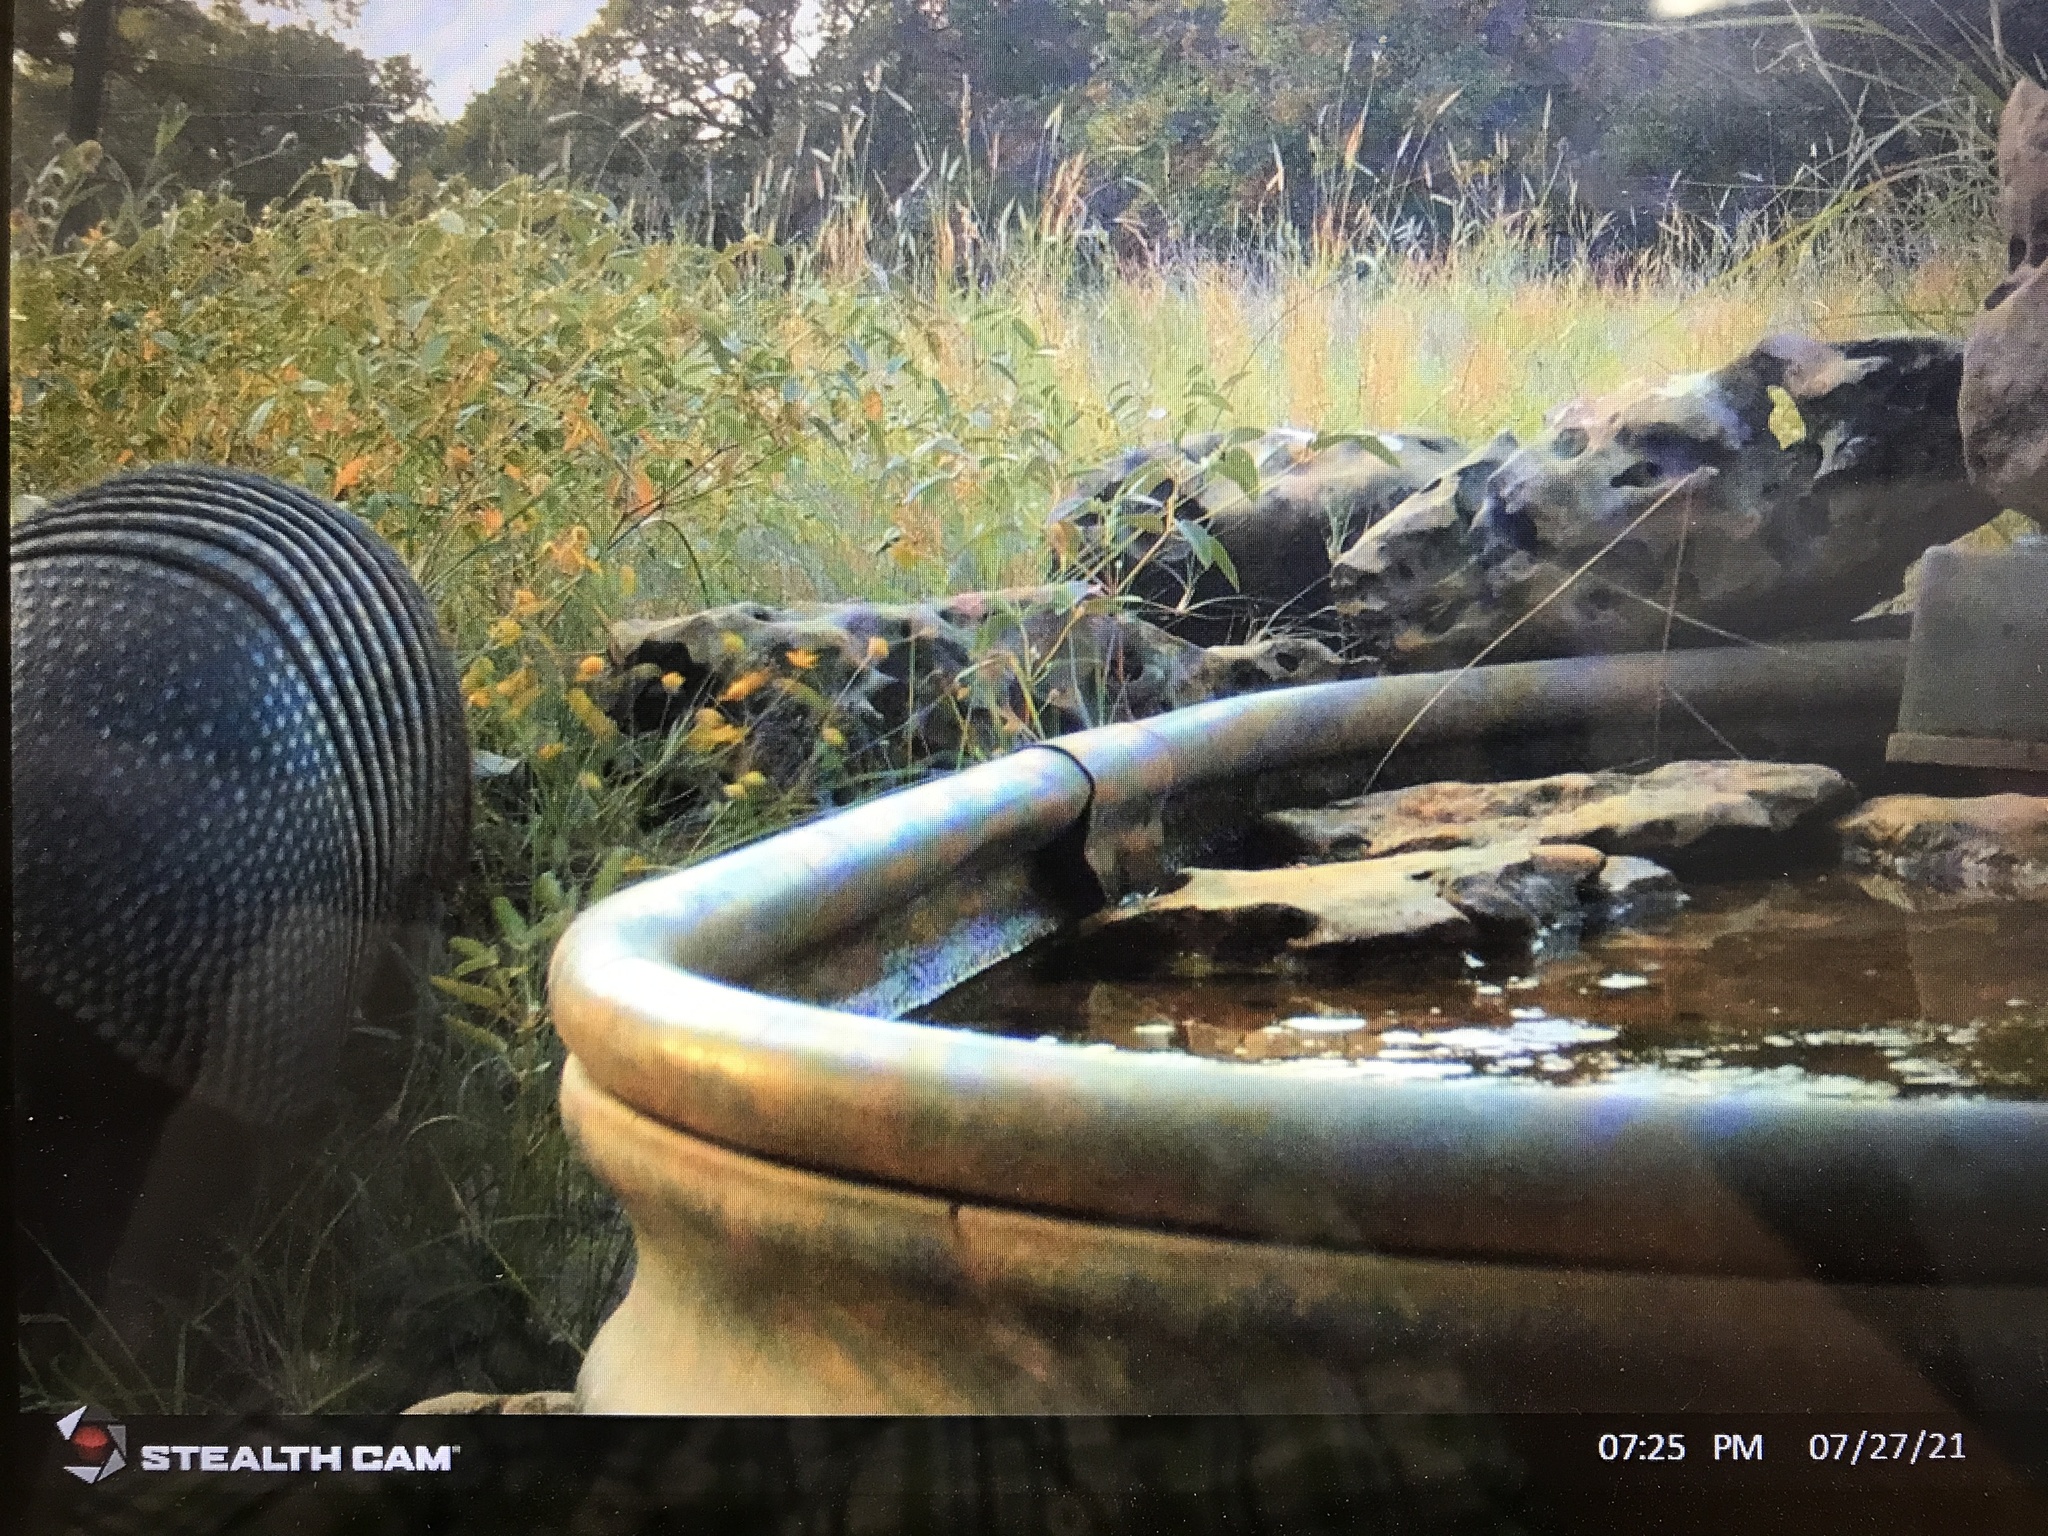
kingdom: Animalia
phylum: Chordata
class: Mammalia
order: Cingulata
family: Dasypodidae
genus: Dasypus
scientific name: Dasypus novemcinctus
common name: Nine-banded armadillo
